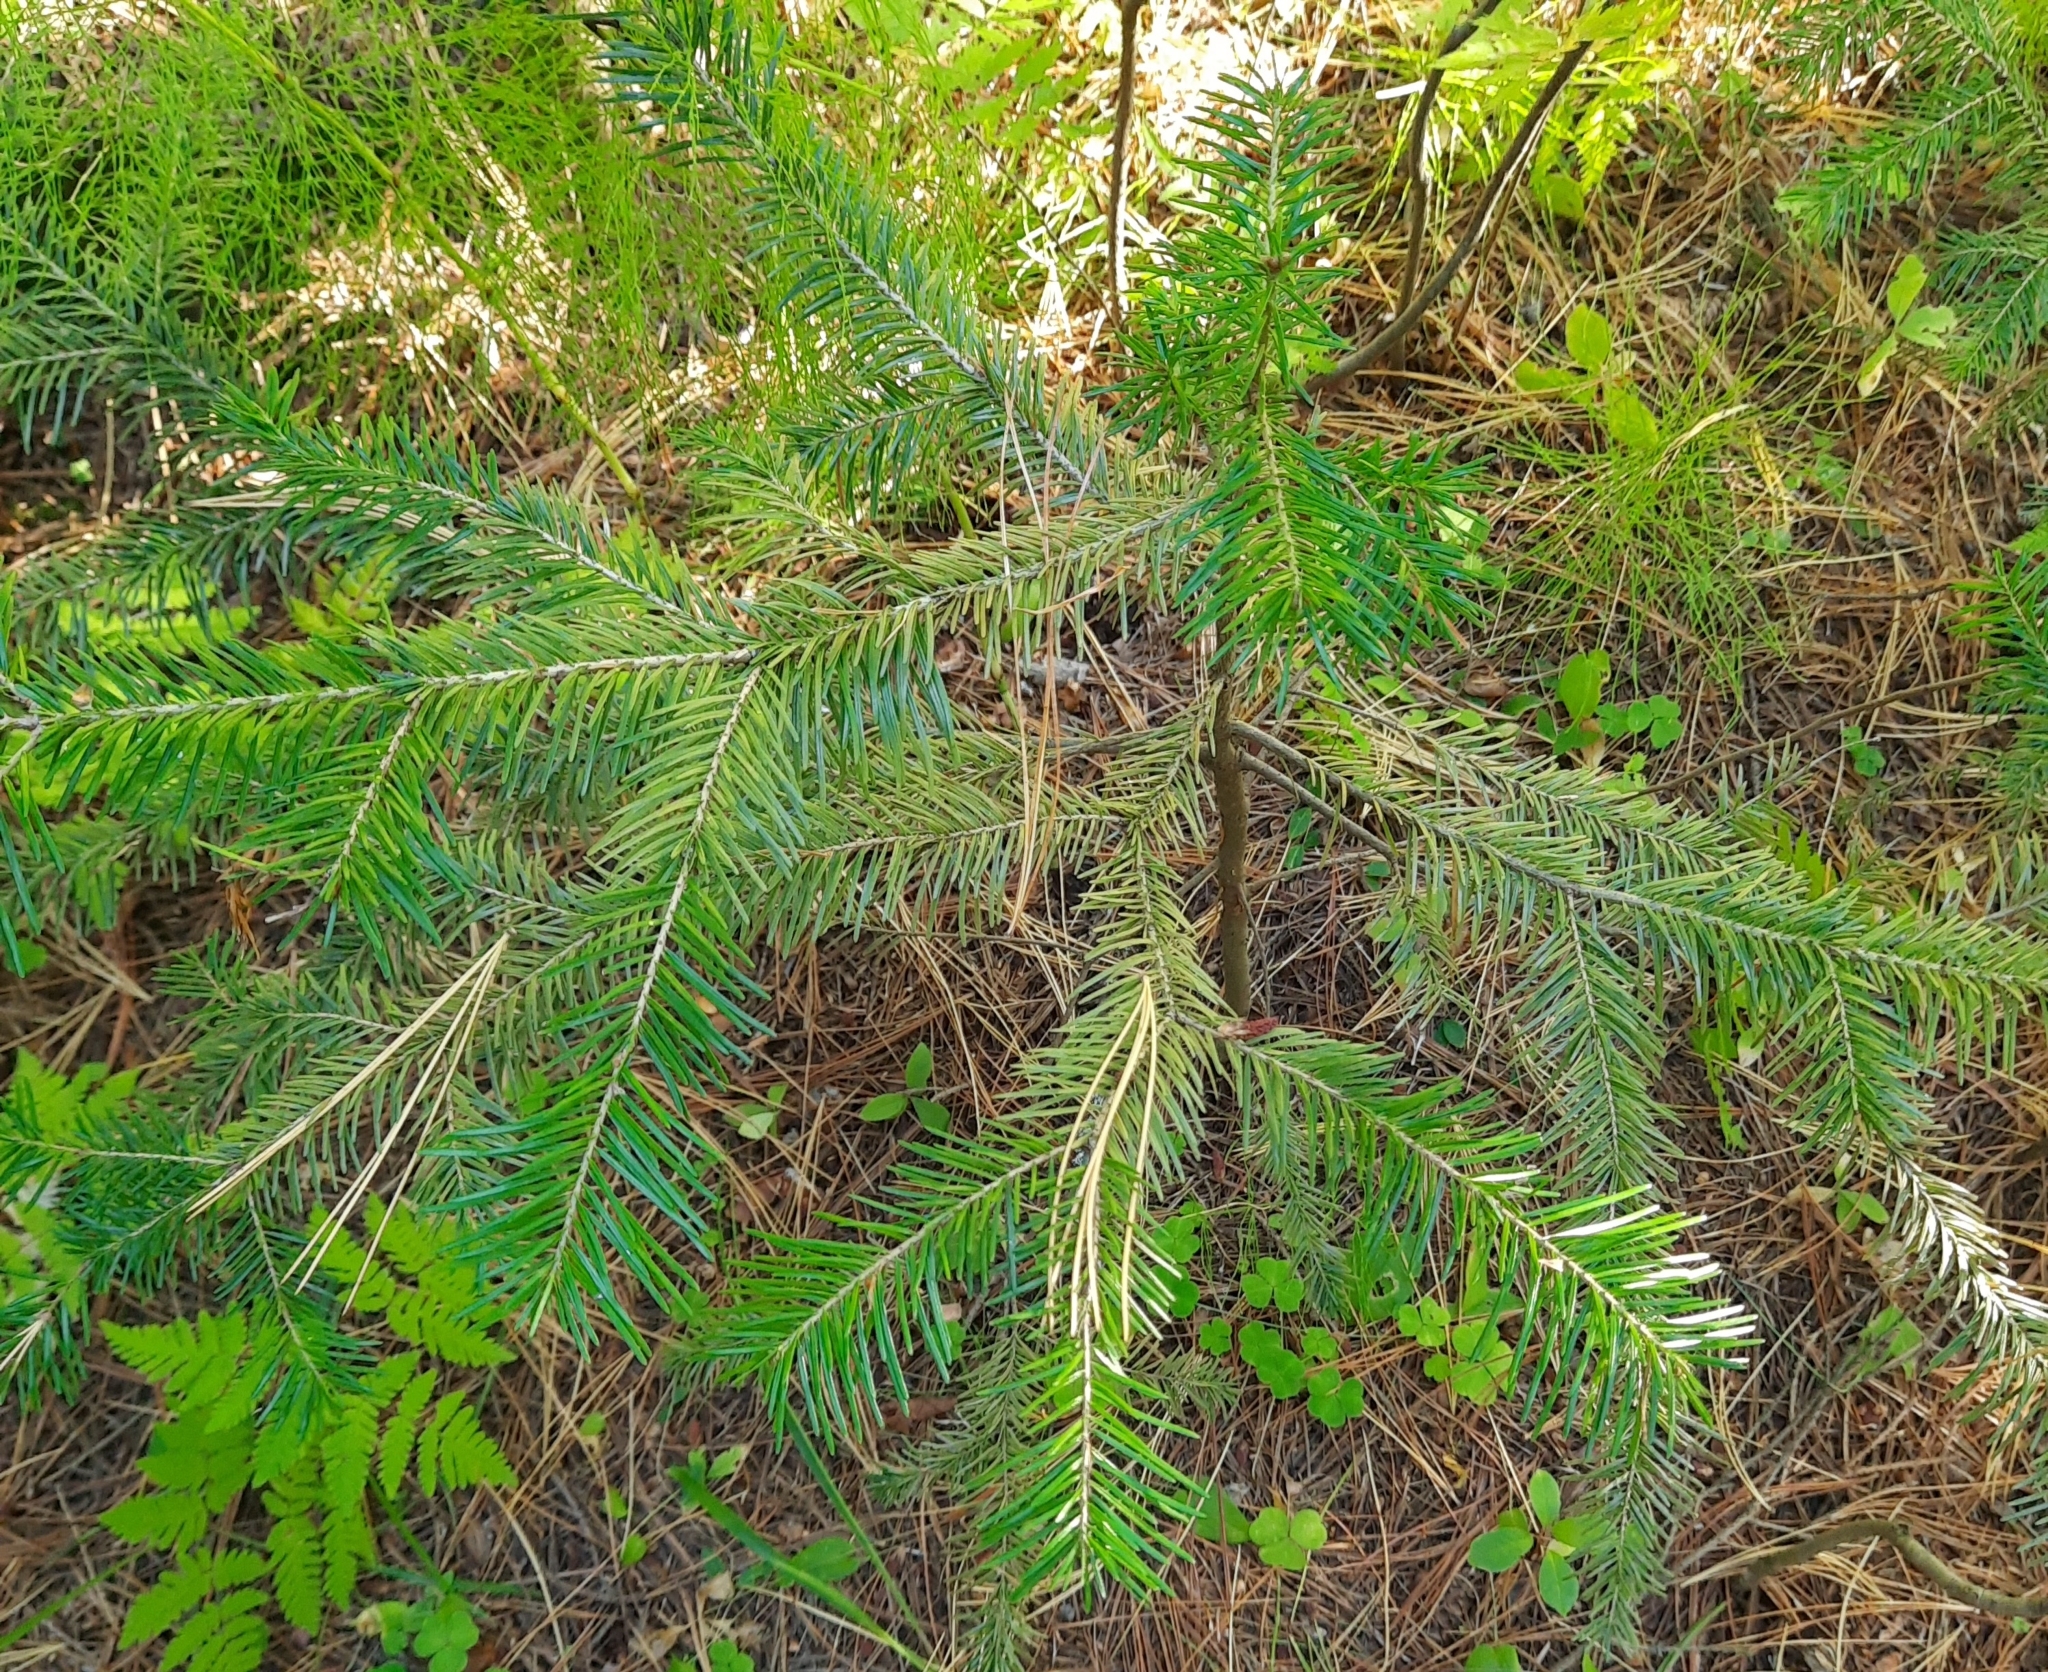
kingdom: Plantae
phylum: Tracheophyta
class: Pinopsida
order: Pinales
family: Pinaceae
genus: Abies
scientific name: Abies sibirica
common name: Siberian fir
